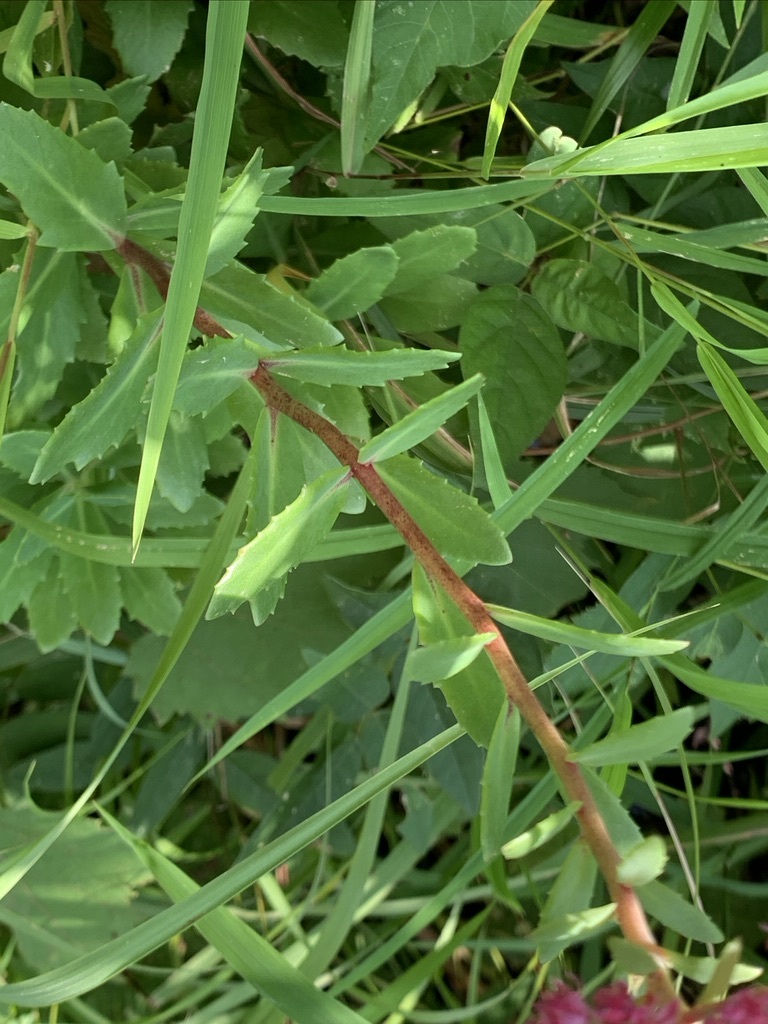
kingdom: Plantae
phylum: Tracheophyta
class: Magnoliopsida
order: Saxifragales
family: Crassulaceae
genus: Hylotelephium
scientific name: Hylotelephium telephium
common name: Live-forever
